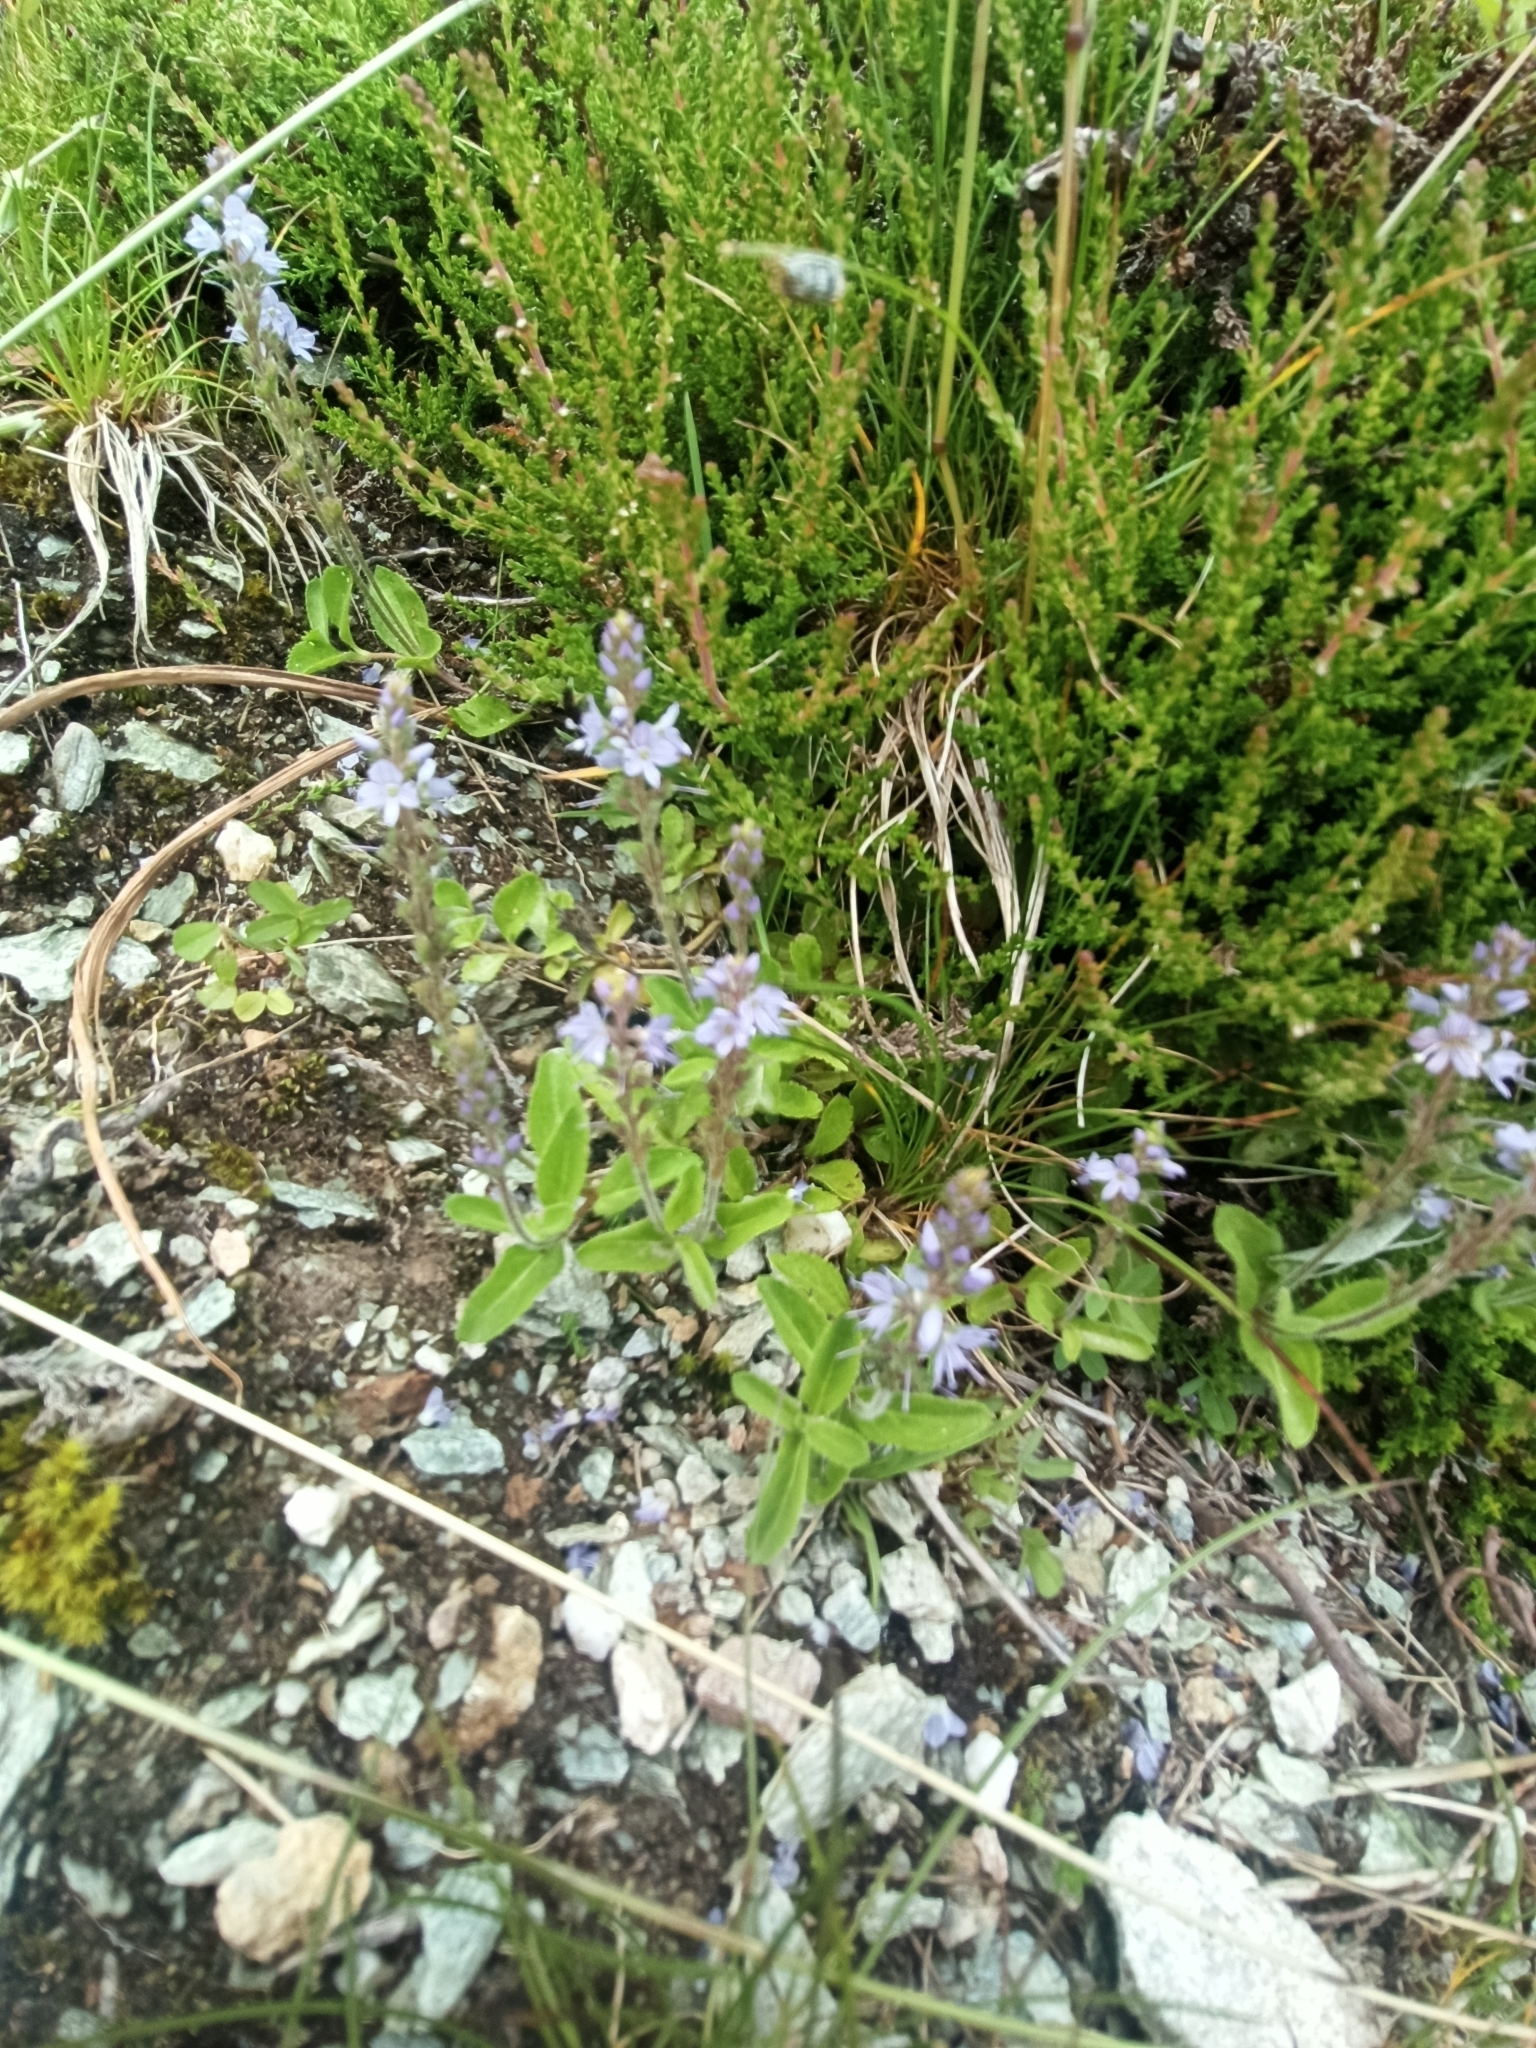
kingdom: Plantae
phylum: Tracheophyta
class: Magnoliopsida
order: Lamiales
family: Plantaginaceae
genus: Veronica
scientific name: Veronica officinalis
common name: Common speedwell
